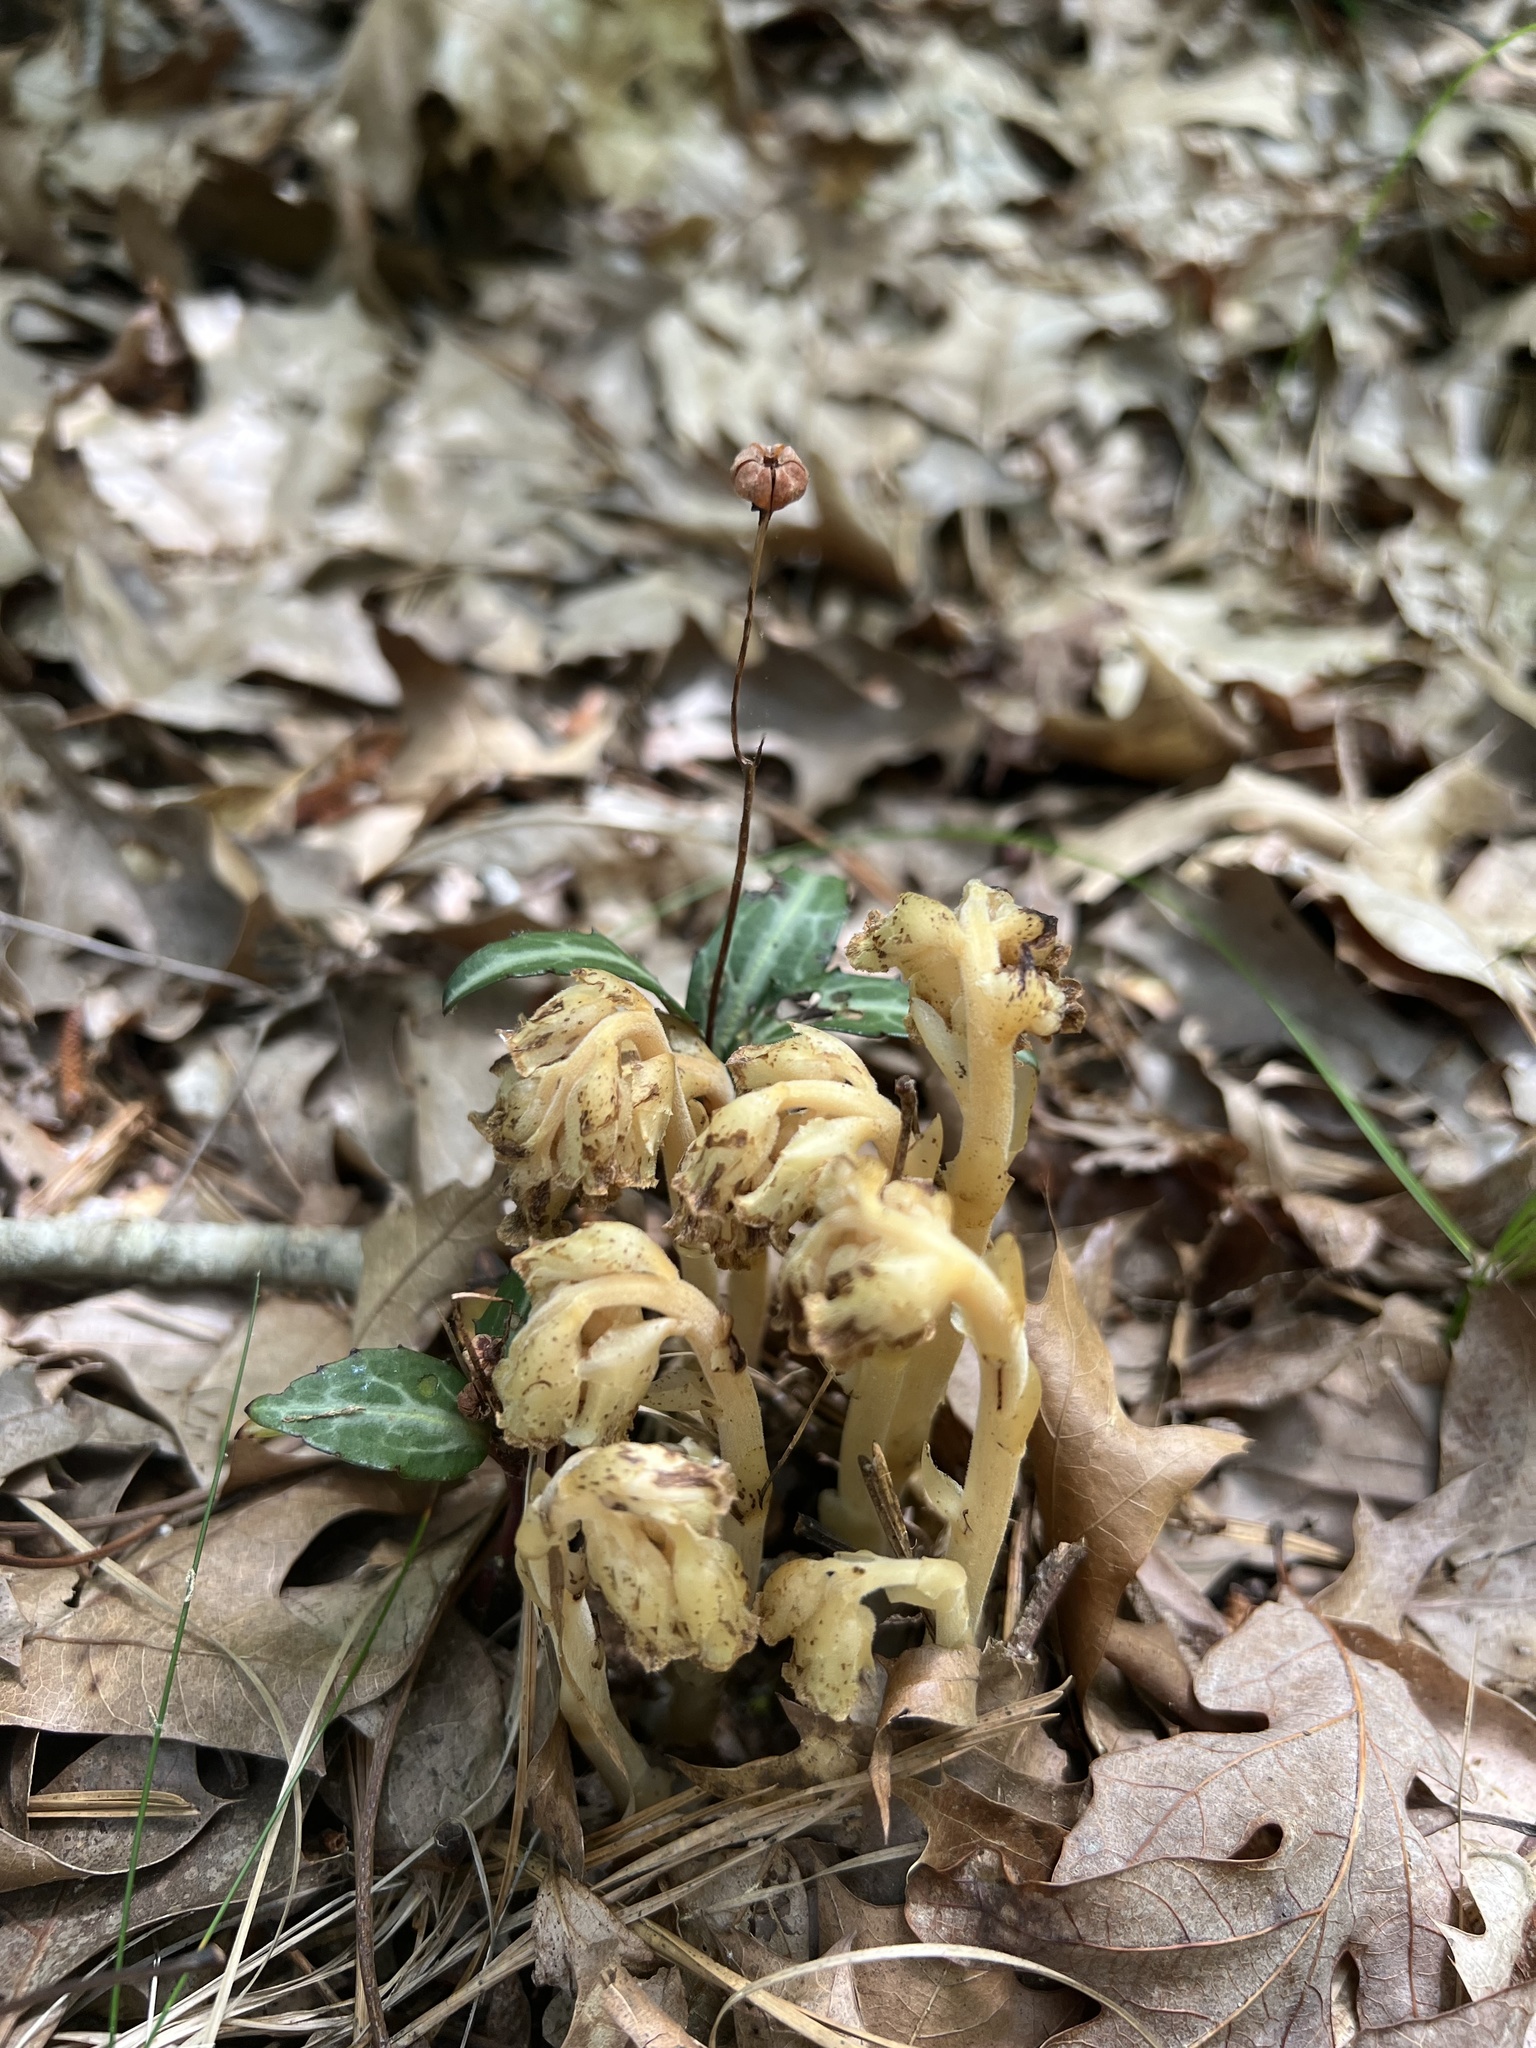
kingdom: Plantae
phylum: Tracheophyta
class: Magnoliopsida
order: Ericales
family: Ericaceae
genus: Hypopitys
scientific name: Hypopitys monotropa
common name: Yellow bird's-nest
